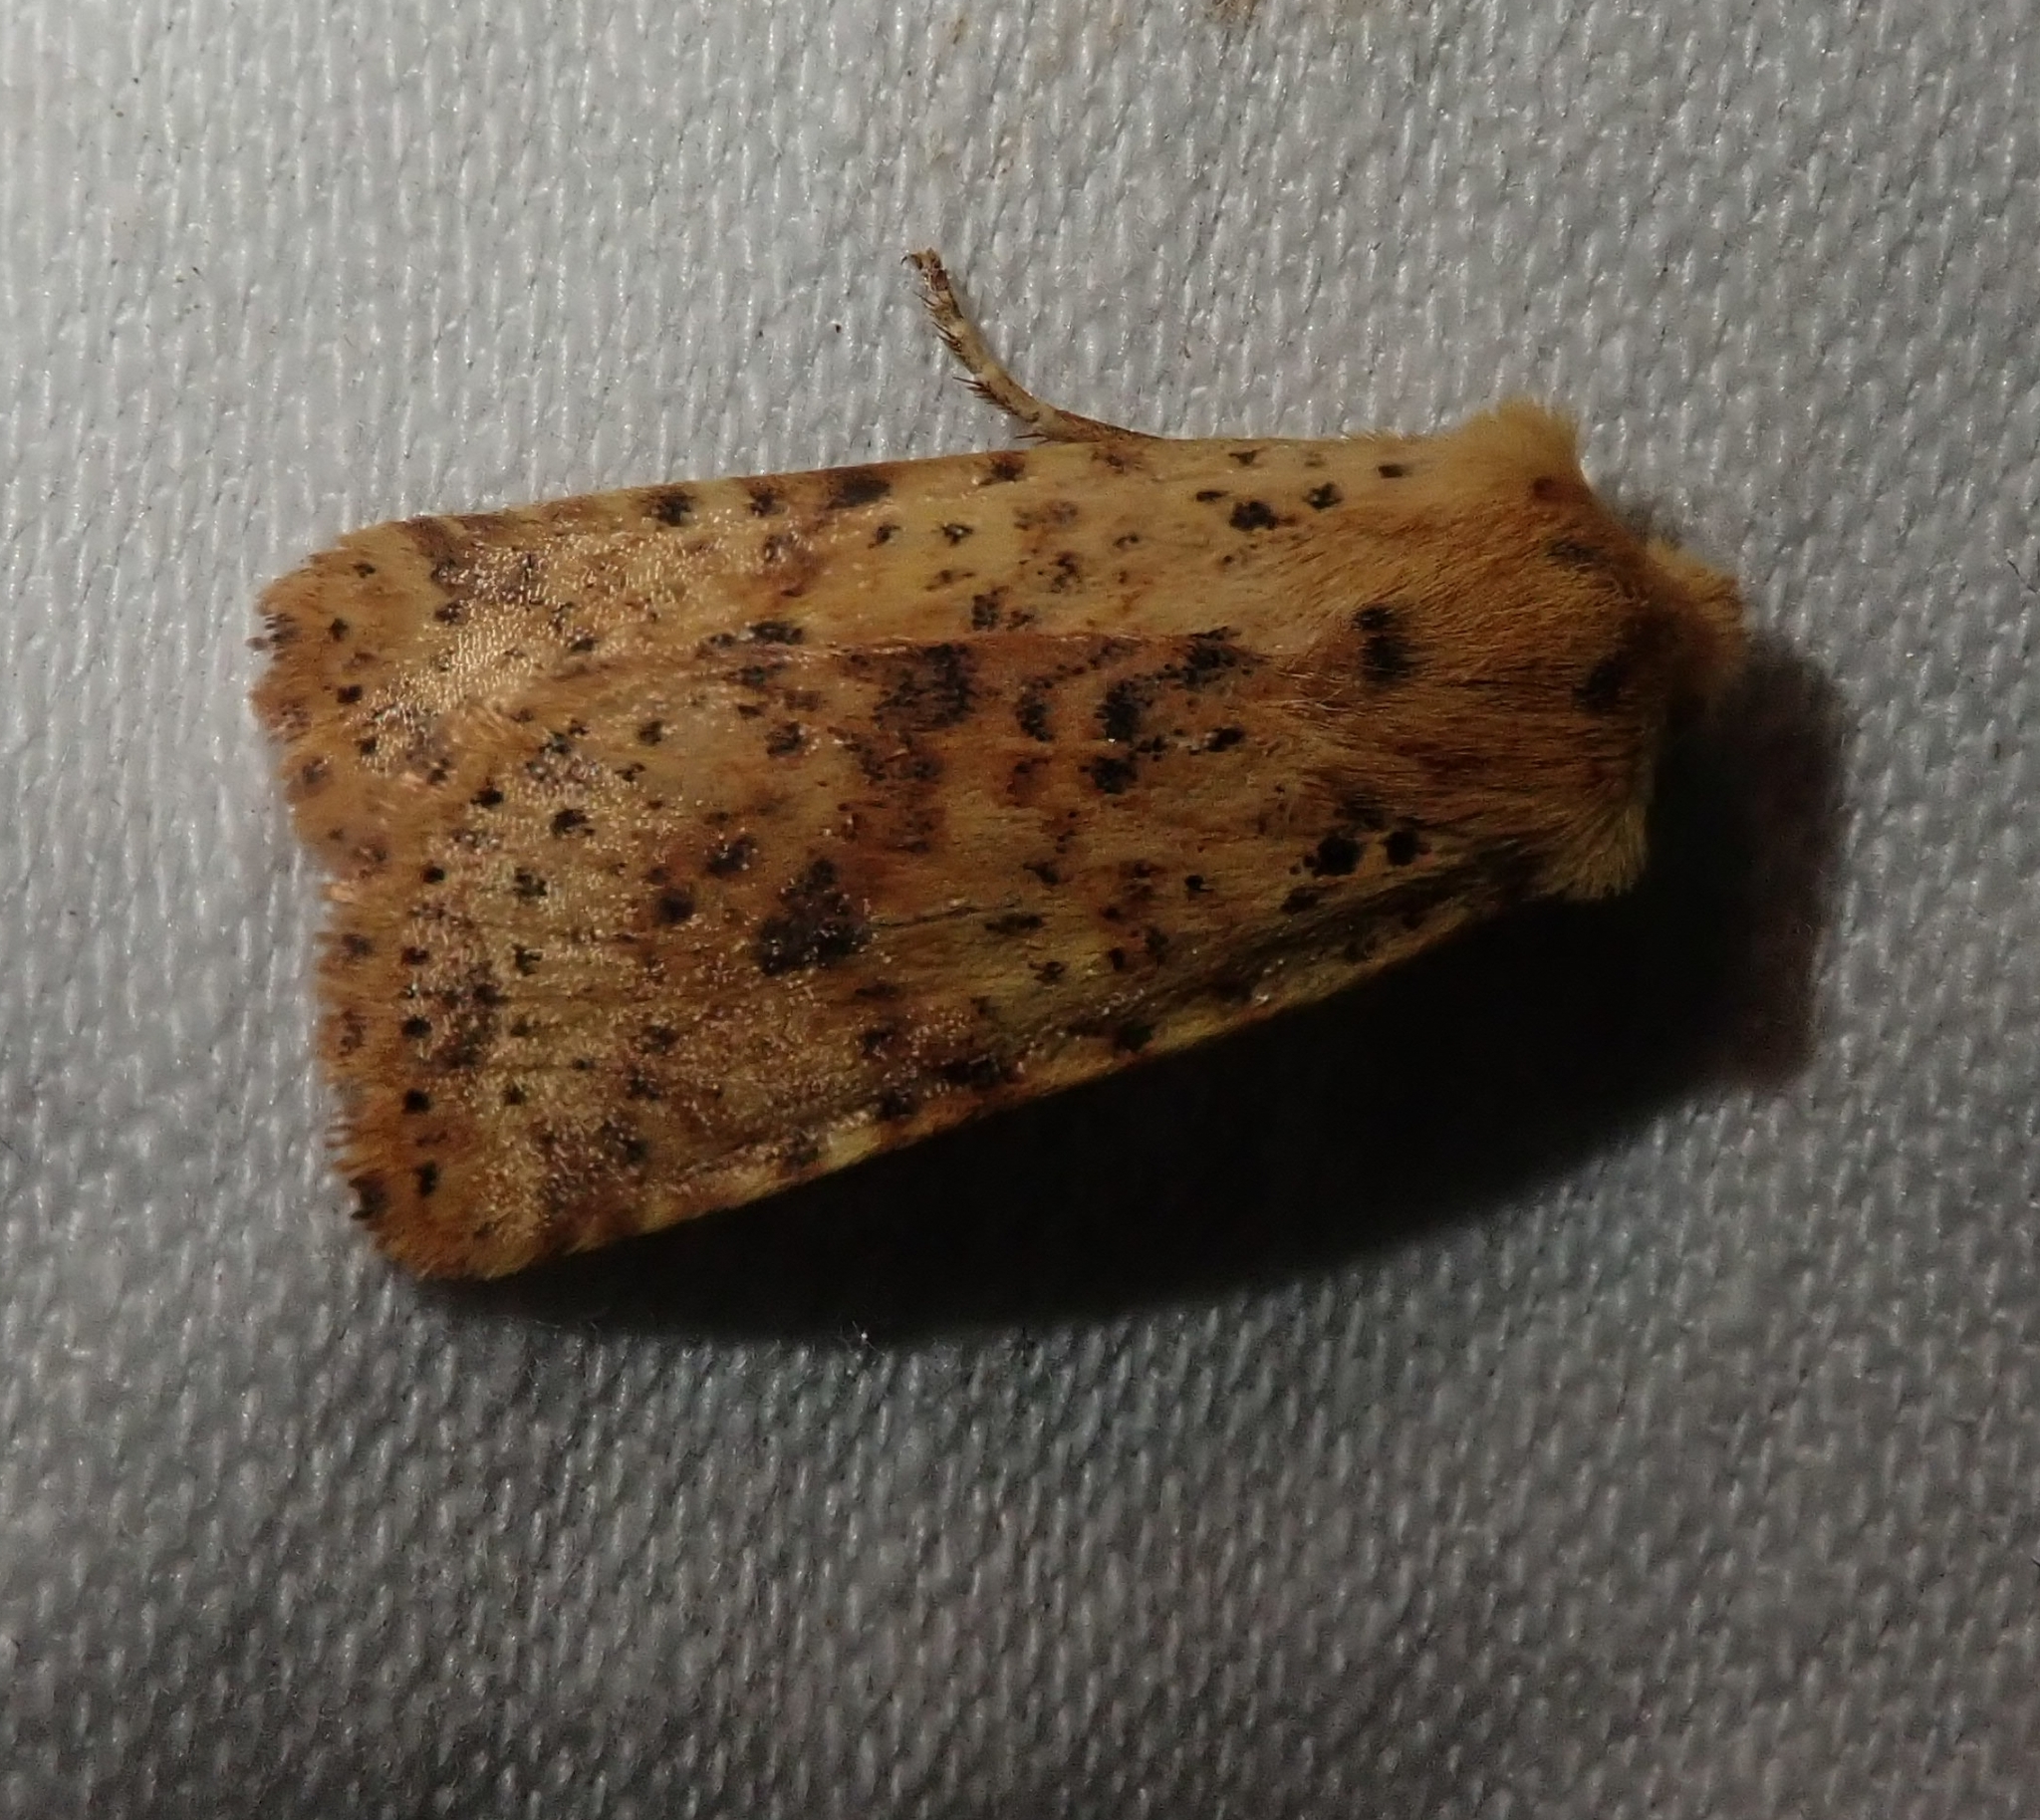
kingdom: Animalia
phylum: Arthropoda
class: Insecta
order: Lepidoptera
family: Noctuidae
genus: Conistra
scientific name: Conistra rubiginea
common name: Dotted chestnut
